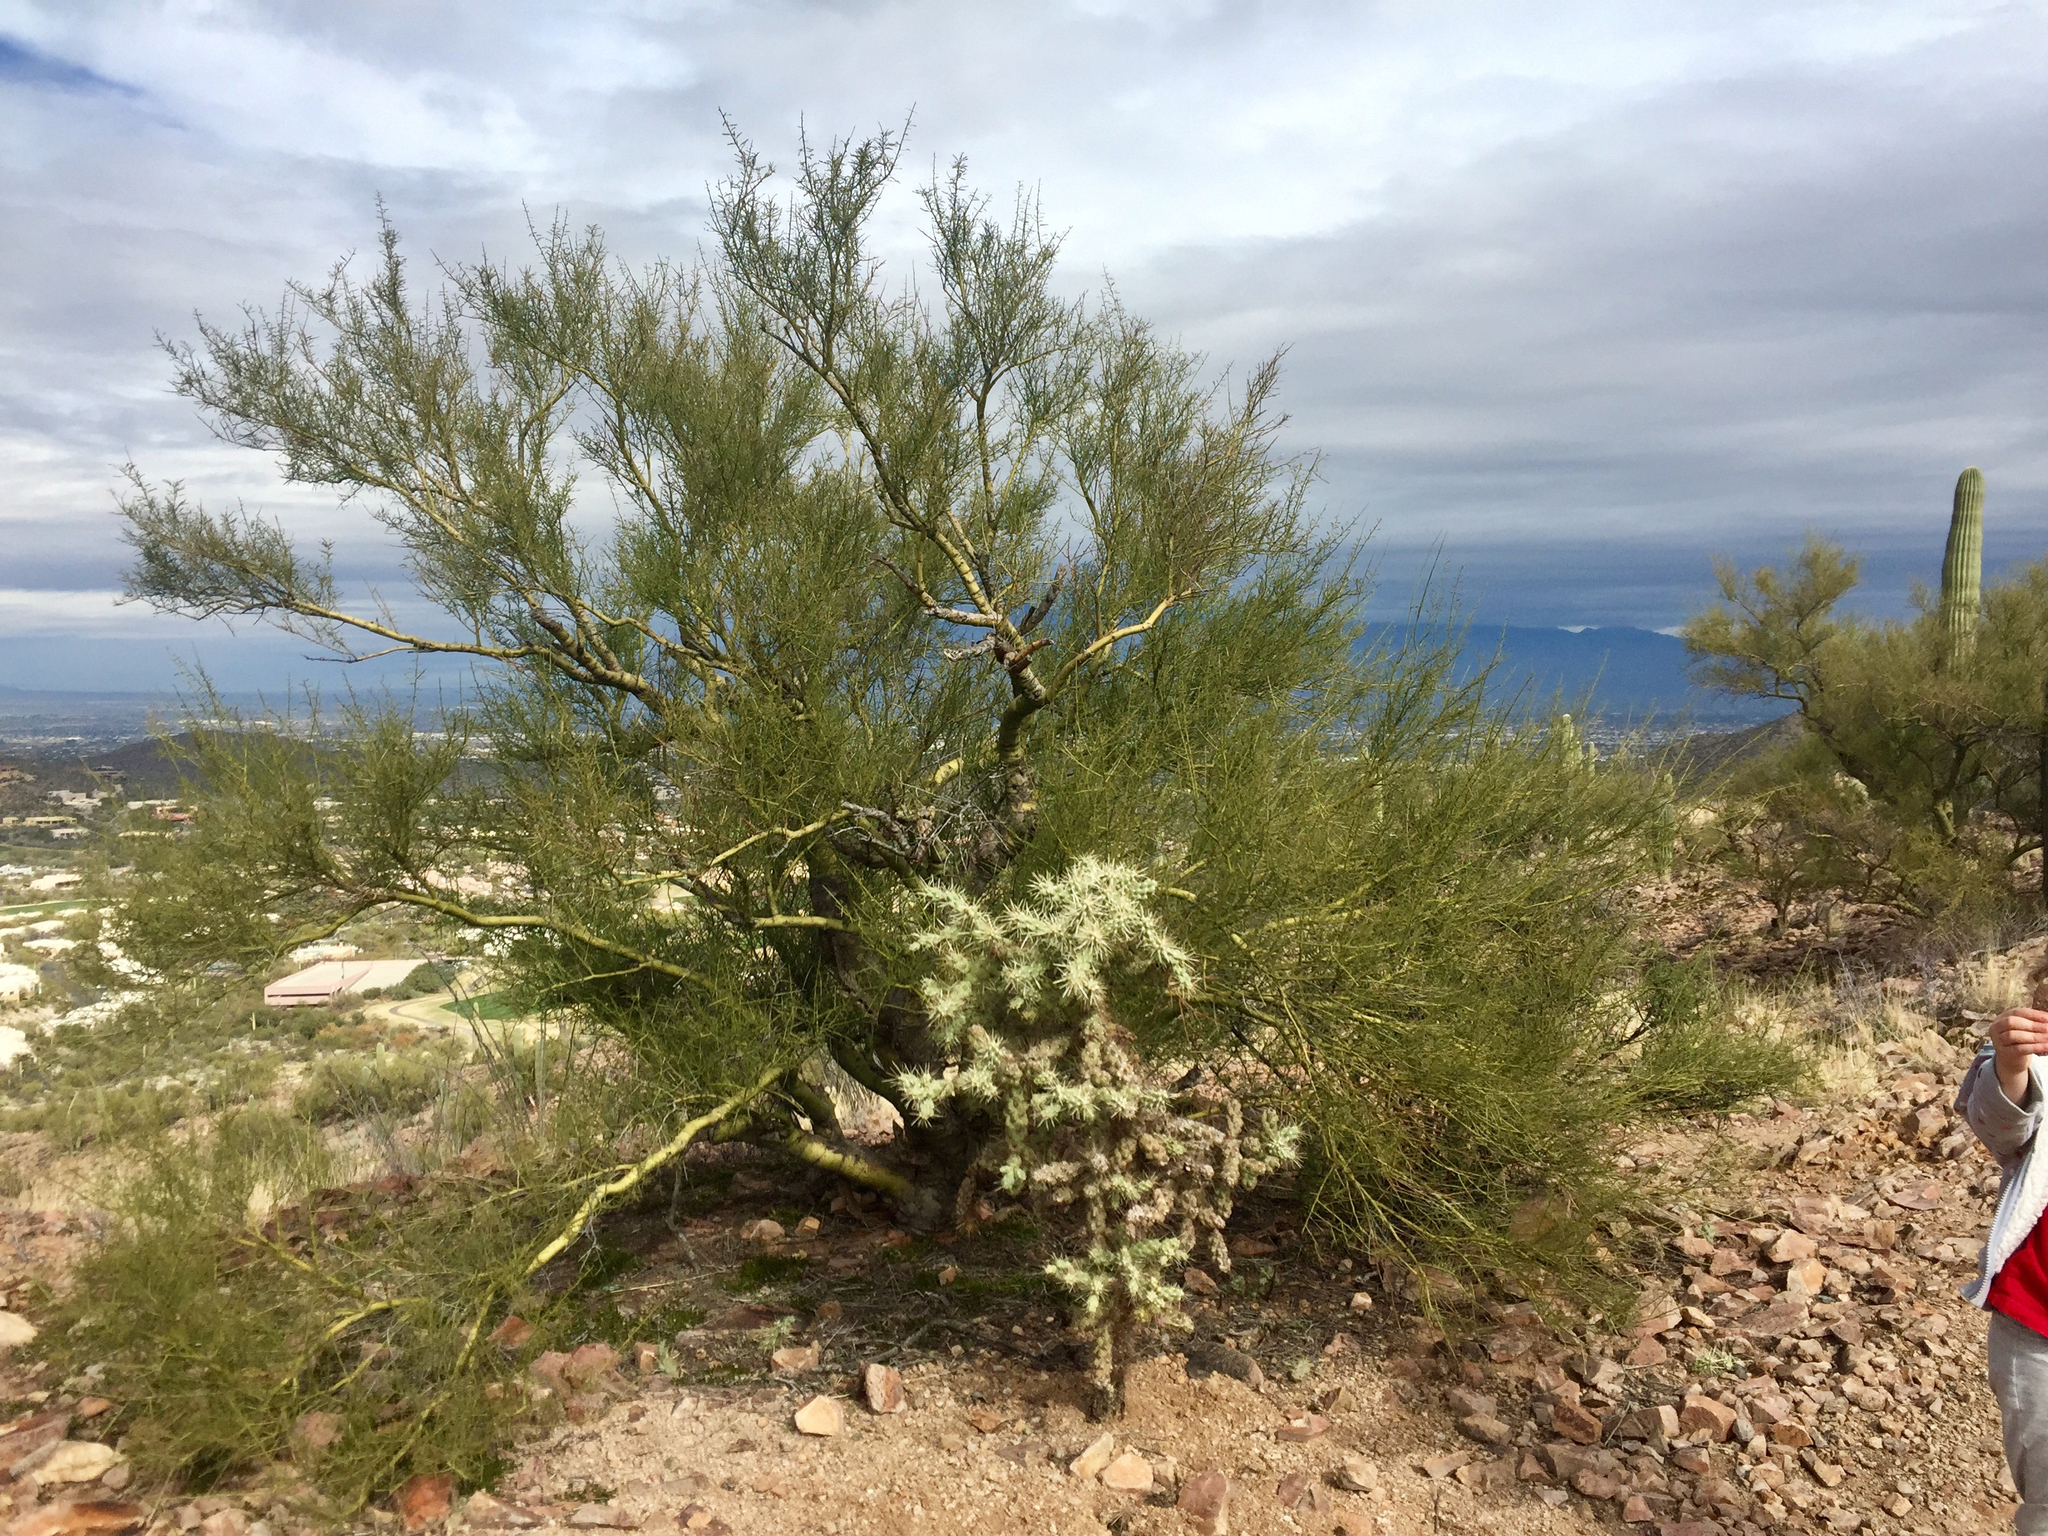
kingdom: Plantae
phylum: Tracheophyta
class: Magnoliopsida
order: Fabales
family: Fabaceae
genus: Parkinsonia
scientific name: Parkinsonia microphylla
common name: Yellow paloverde
